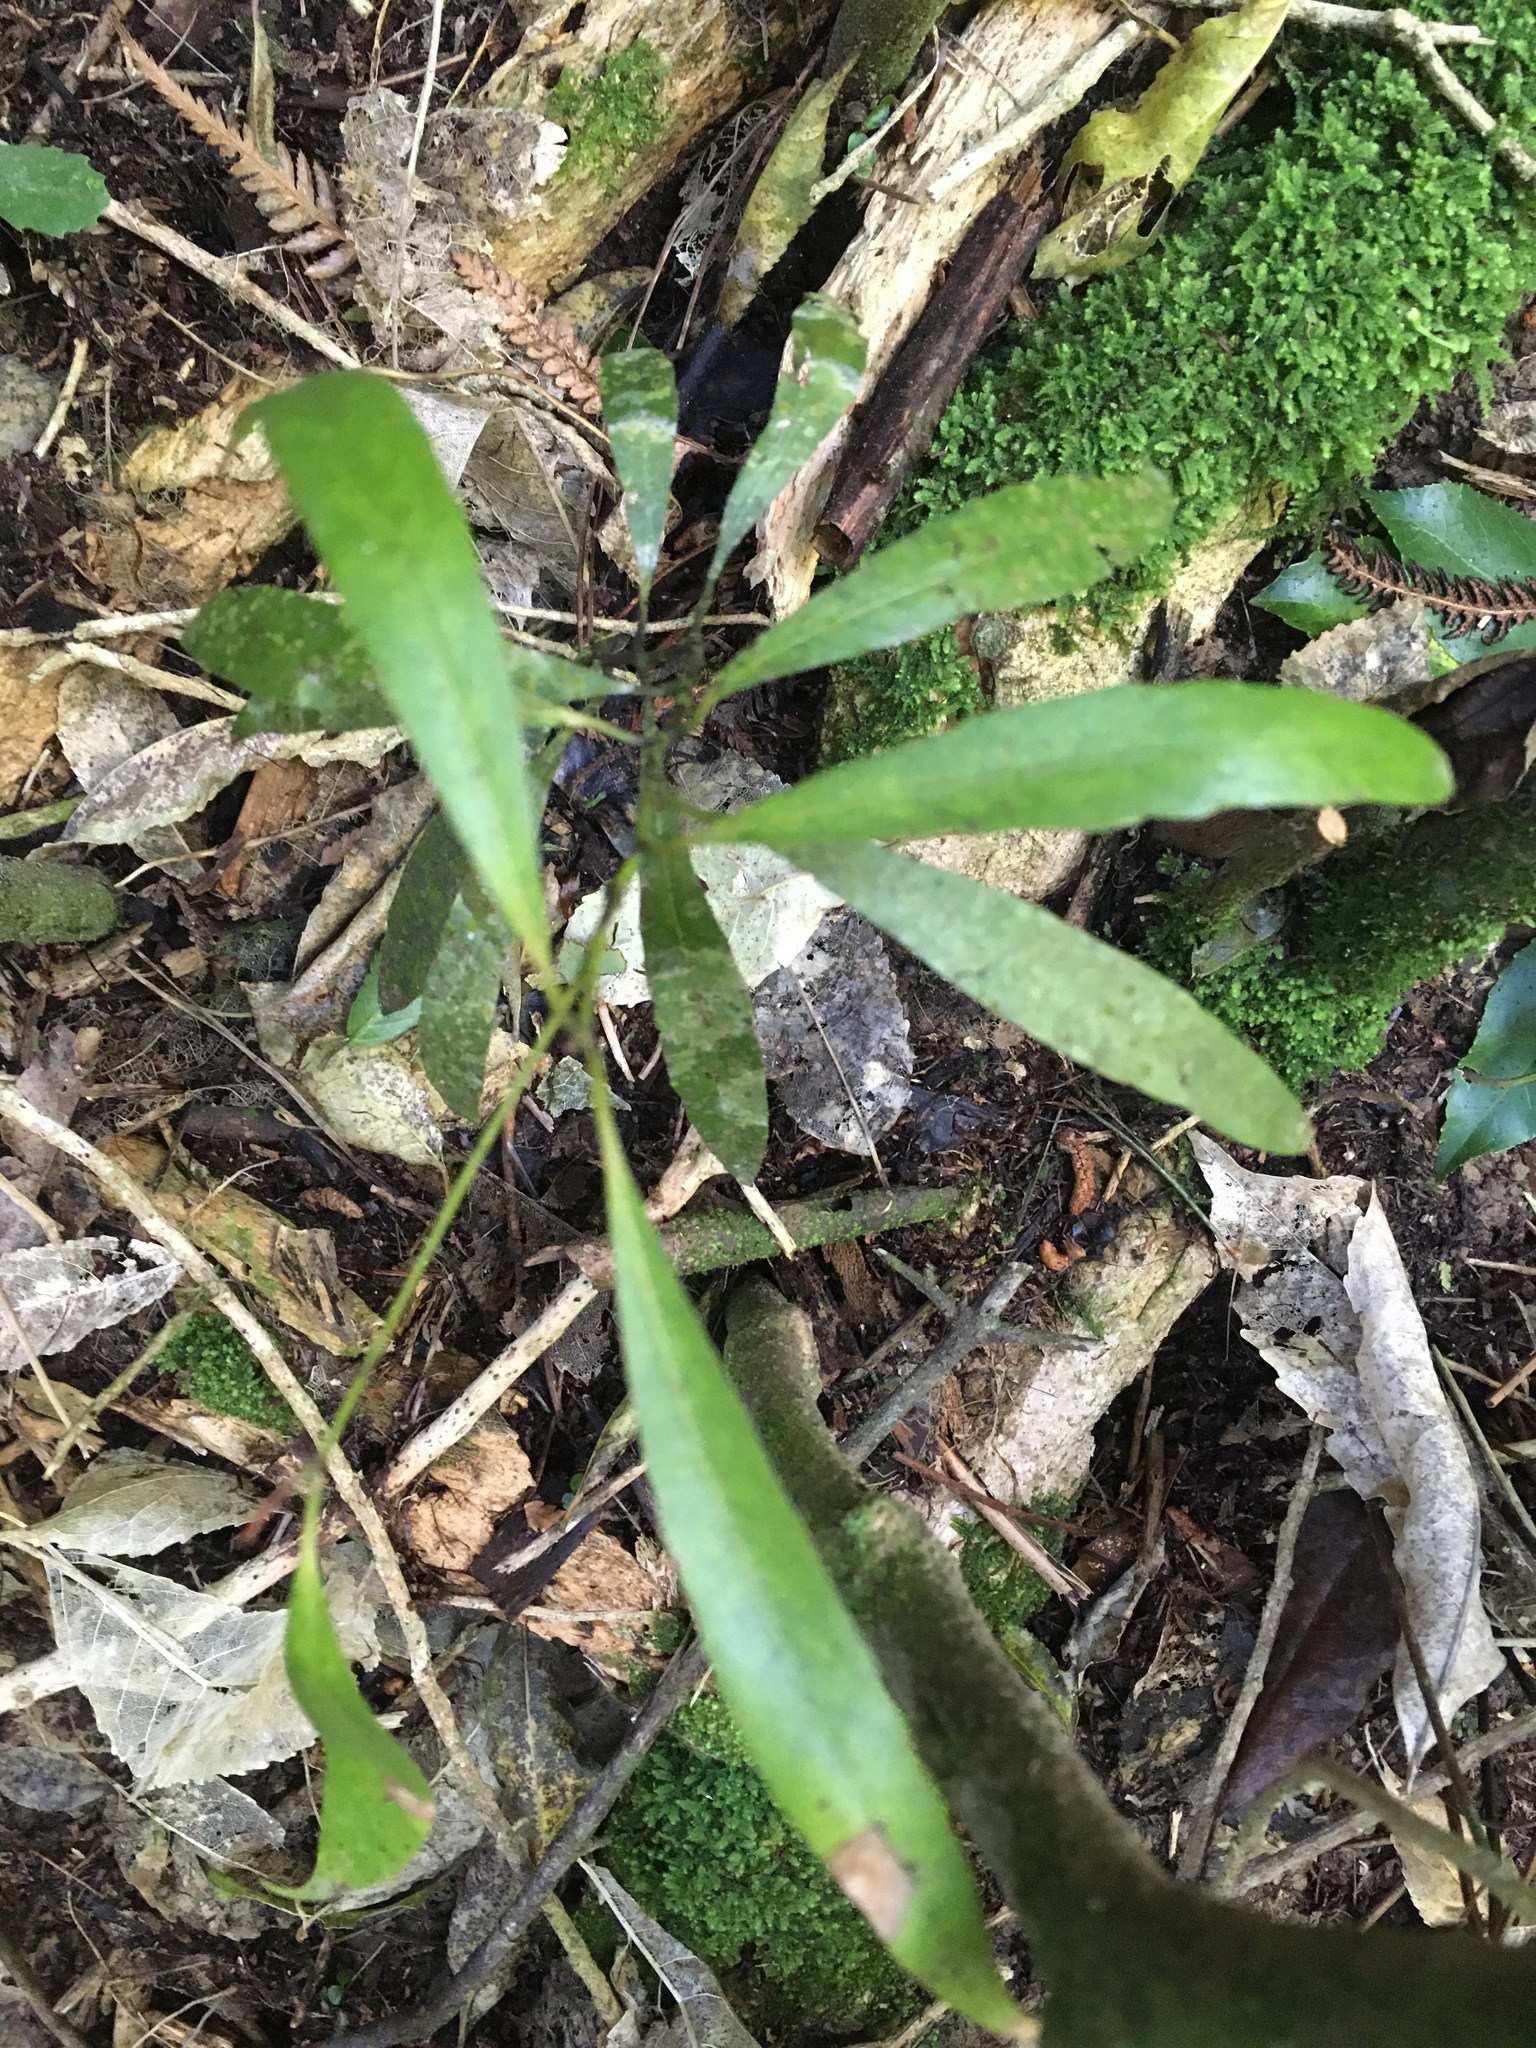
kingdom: Plantae
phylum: Tracheophyta
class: Magnoliopsida
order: Laurales
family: Lauraceae
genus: Beilschmiedia
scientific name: Beilschmiedia tawa
